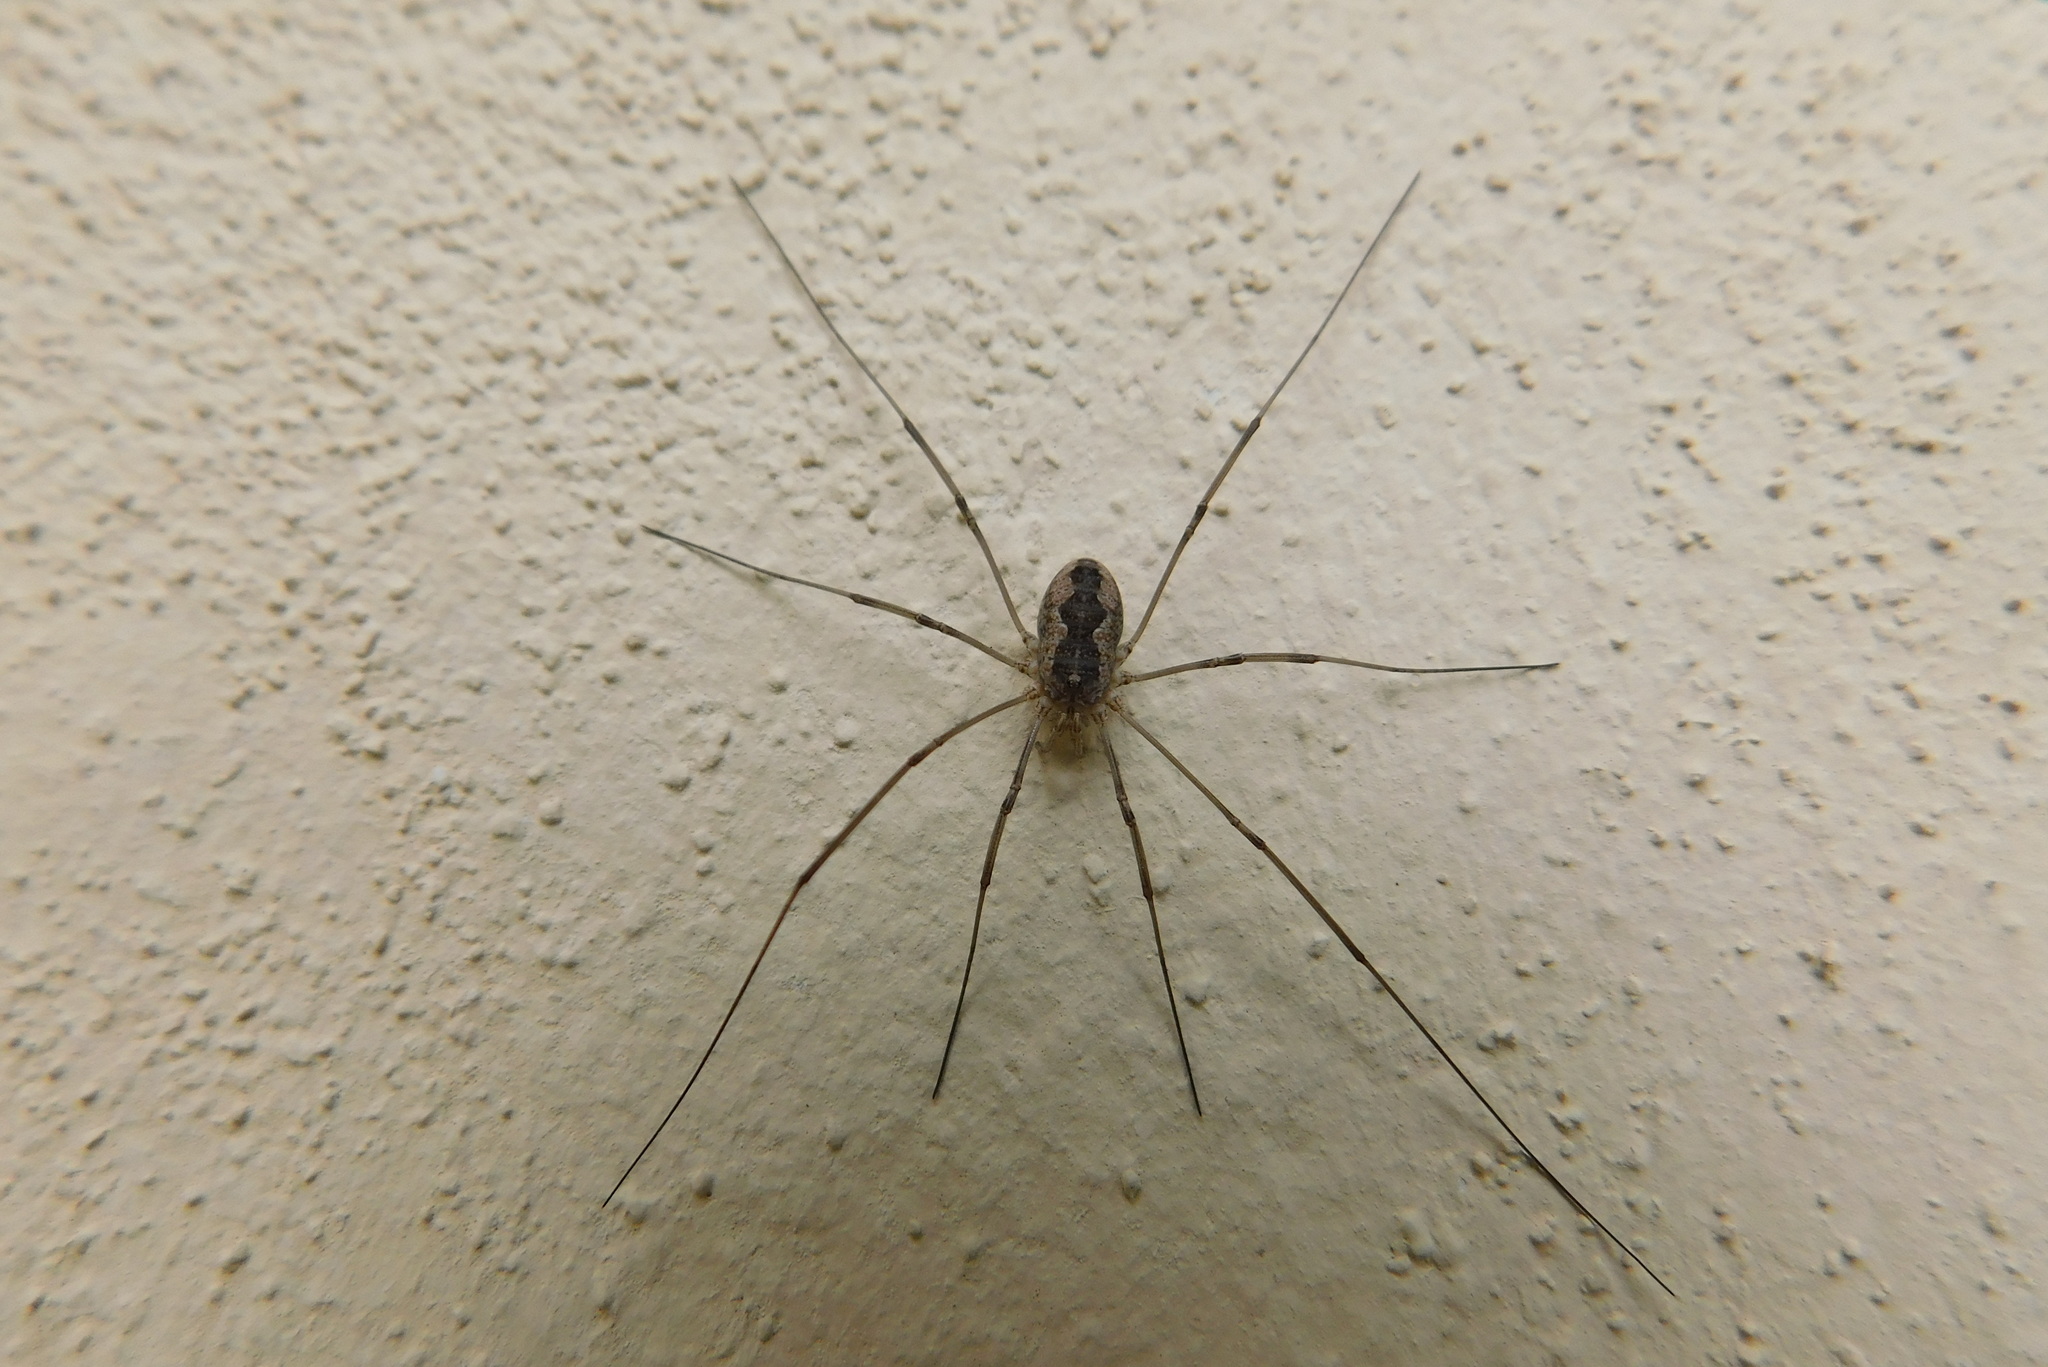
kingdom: Animalia
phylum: Arthropoda
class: Arachnida
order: Opiliones
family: Phalangiidae
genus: Phalangium
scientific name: Phalangium opilio
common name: Daddy longleg
